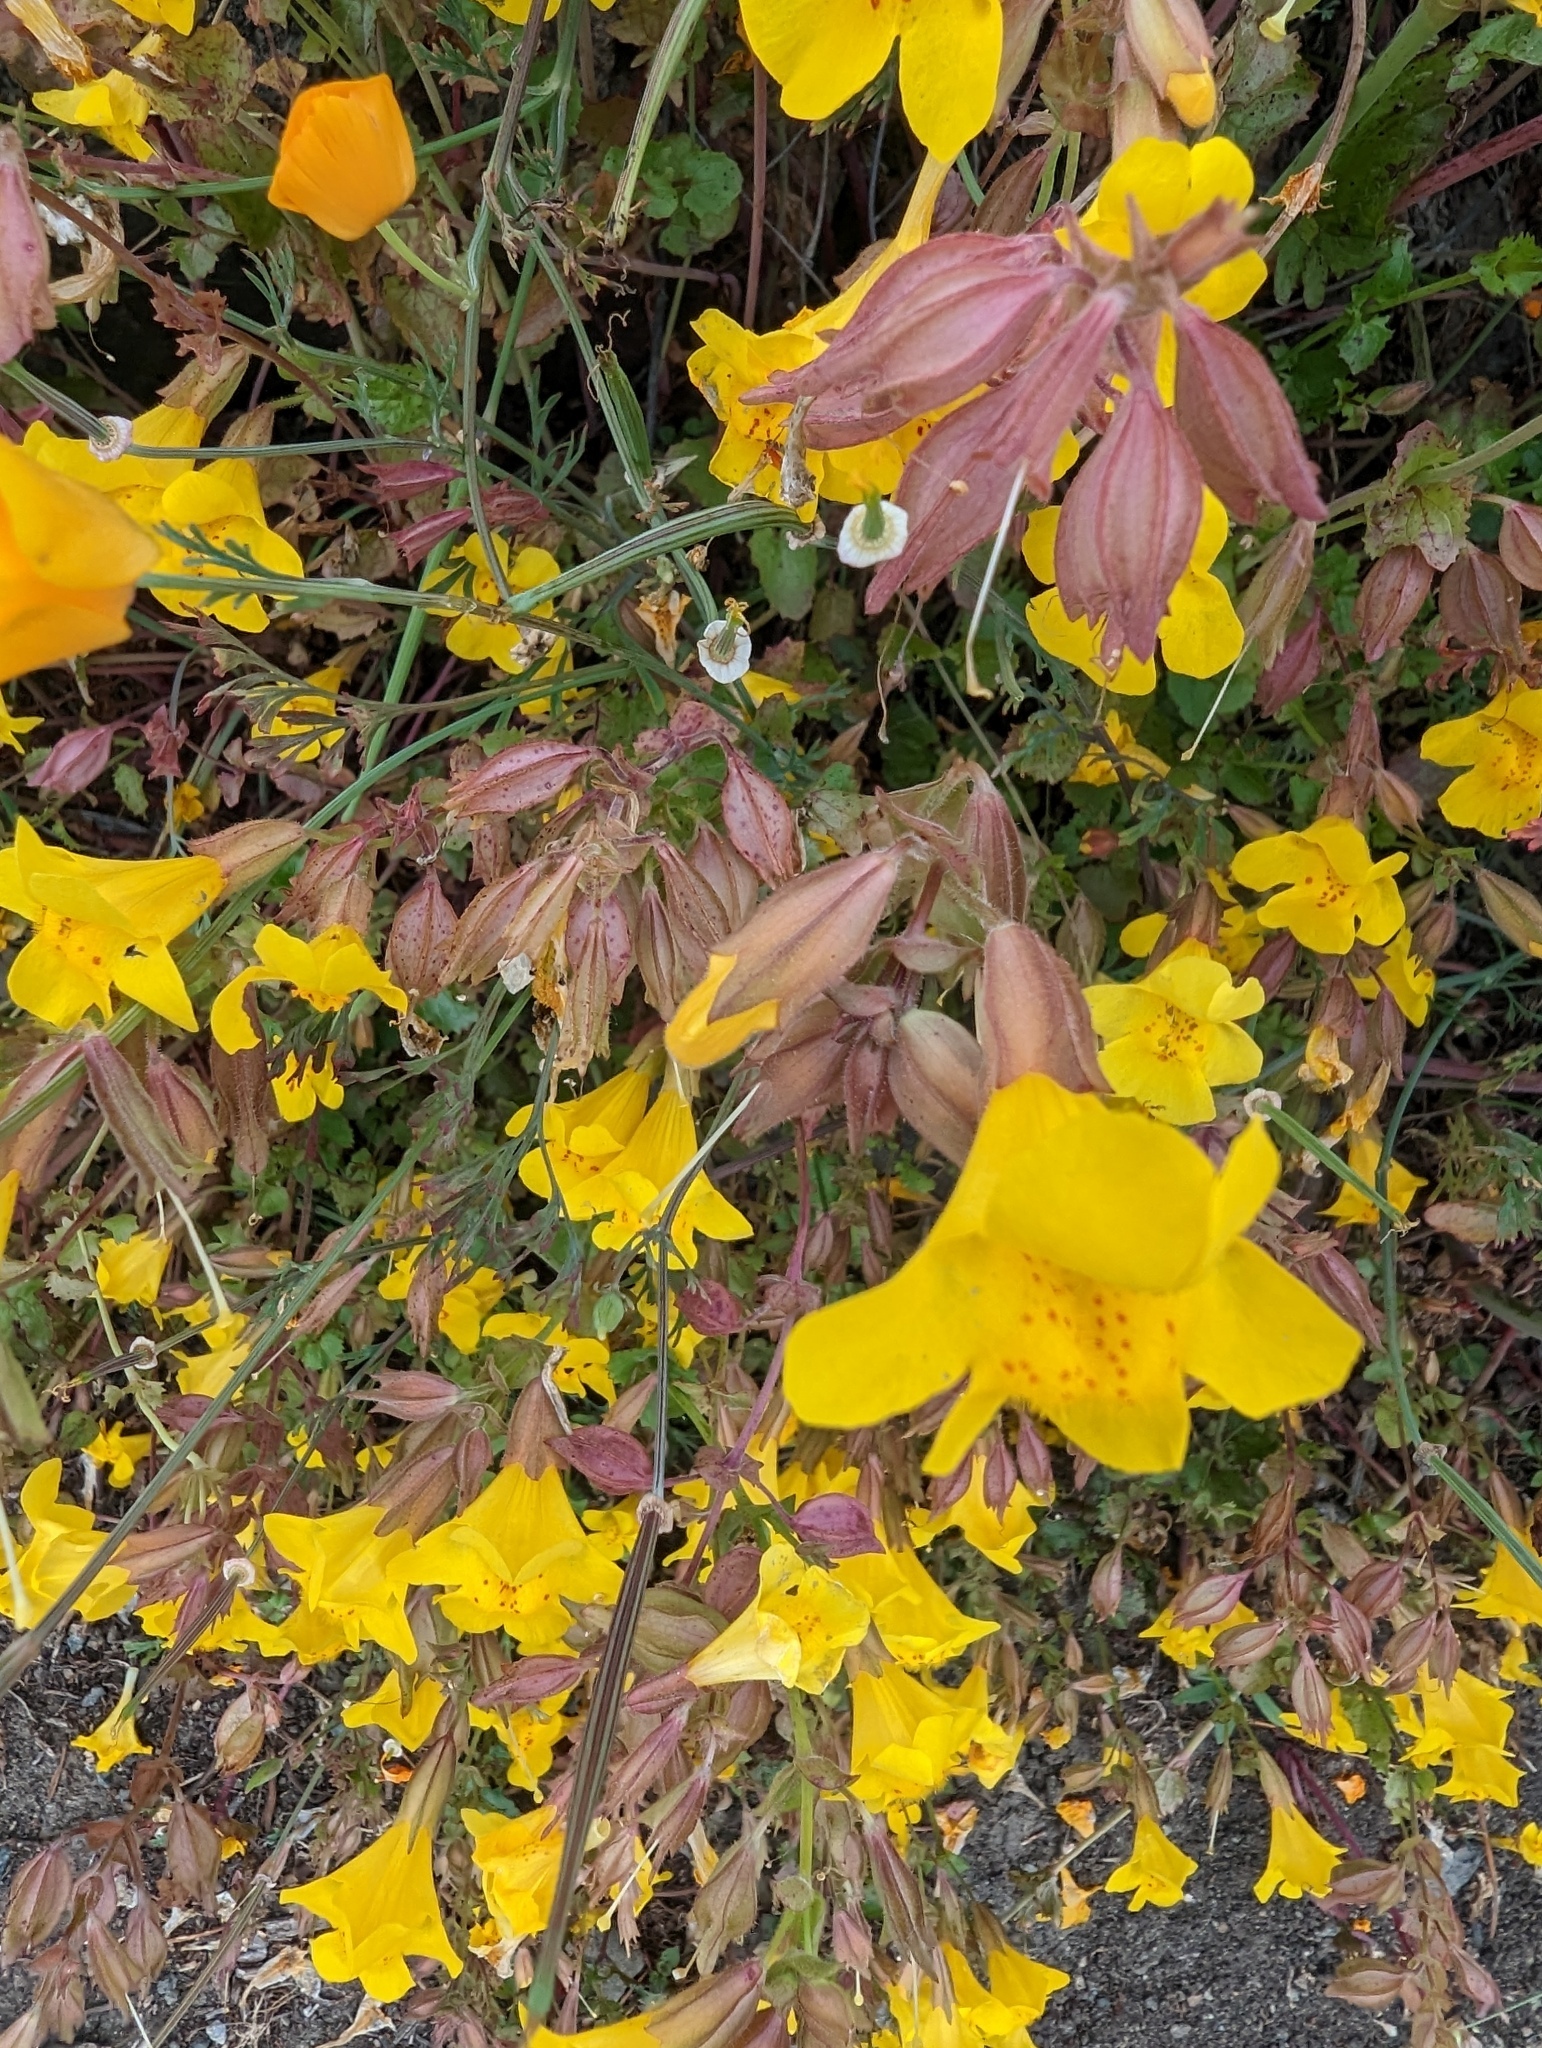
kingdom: Plantae
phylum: Tracheophyta
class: Magnoliopsida
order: Lamiales
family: Phrymaceae
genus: Erythranthe
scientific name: Erythranthe guttata
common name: Monkeyflower
